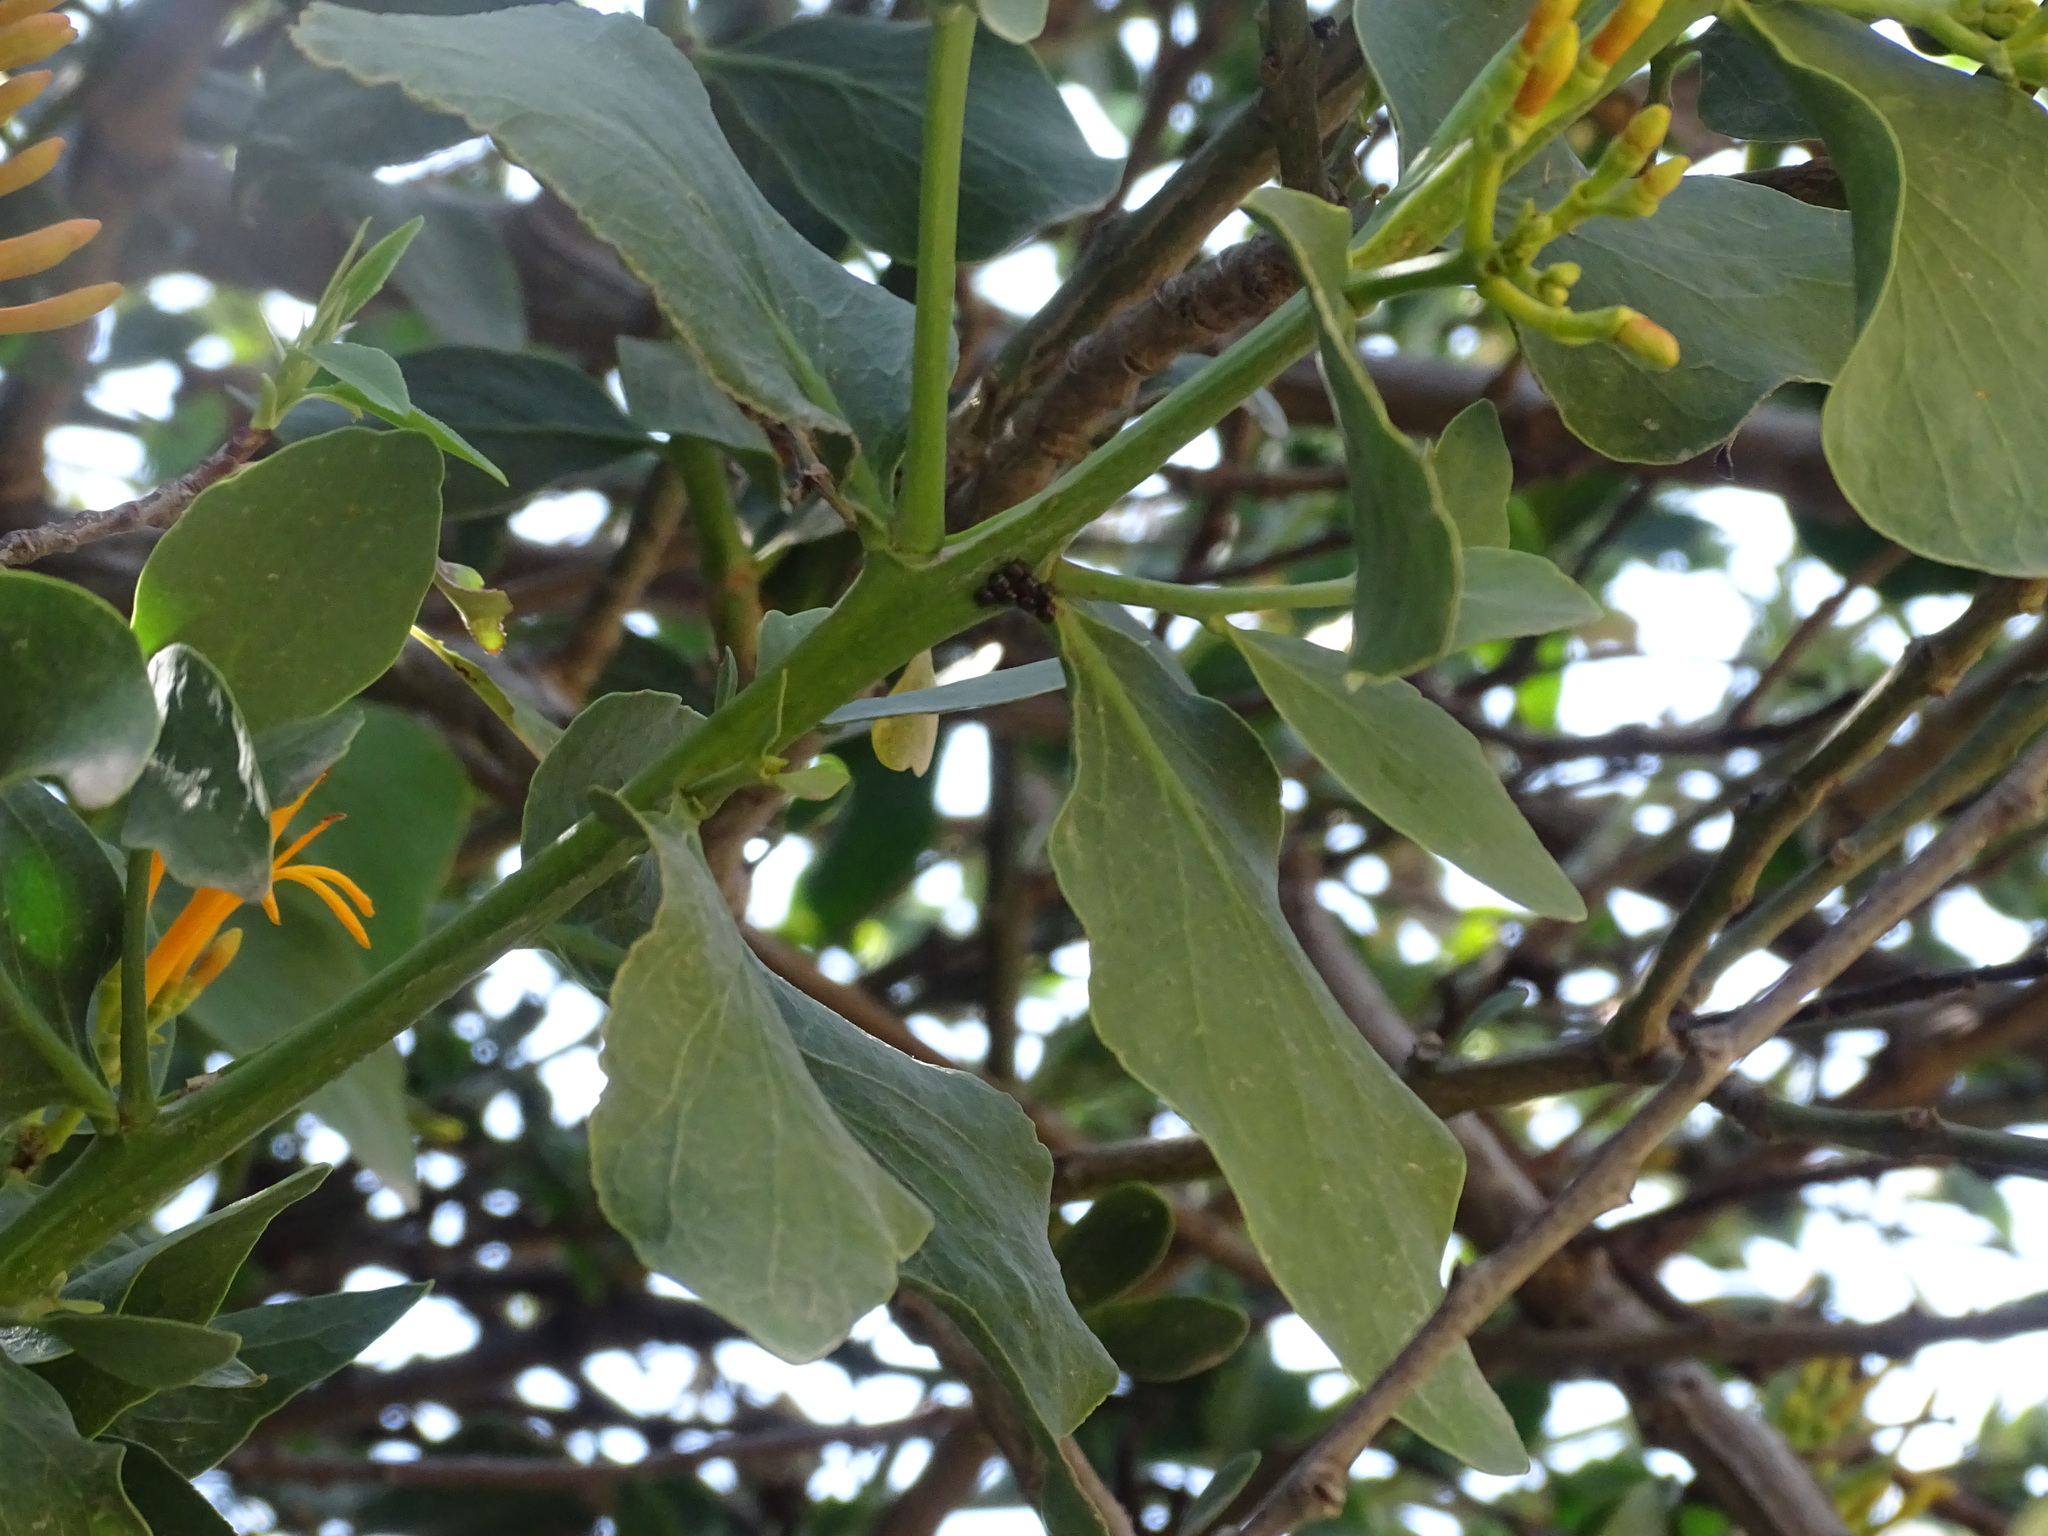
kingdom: Plantae
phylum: Tracheophyta
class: Magnoliopsida
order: Santalales
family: Loranthaceae
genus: Psittacanthus
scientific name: Psittacanthus calyculatus
